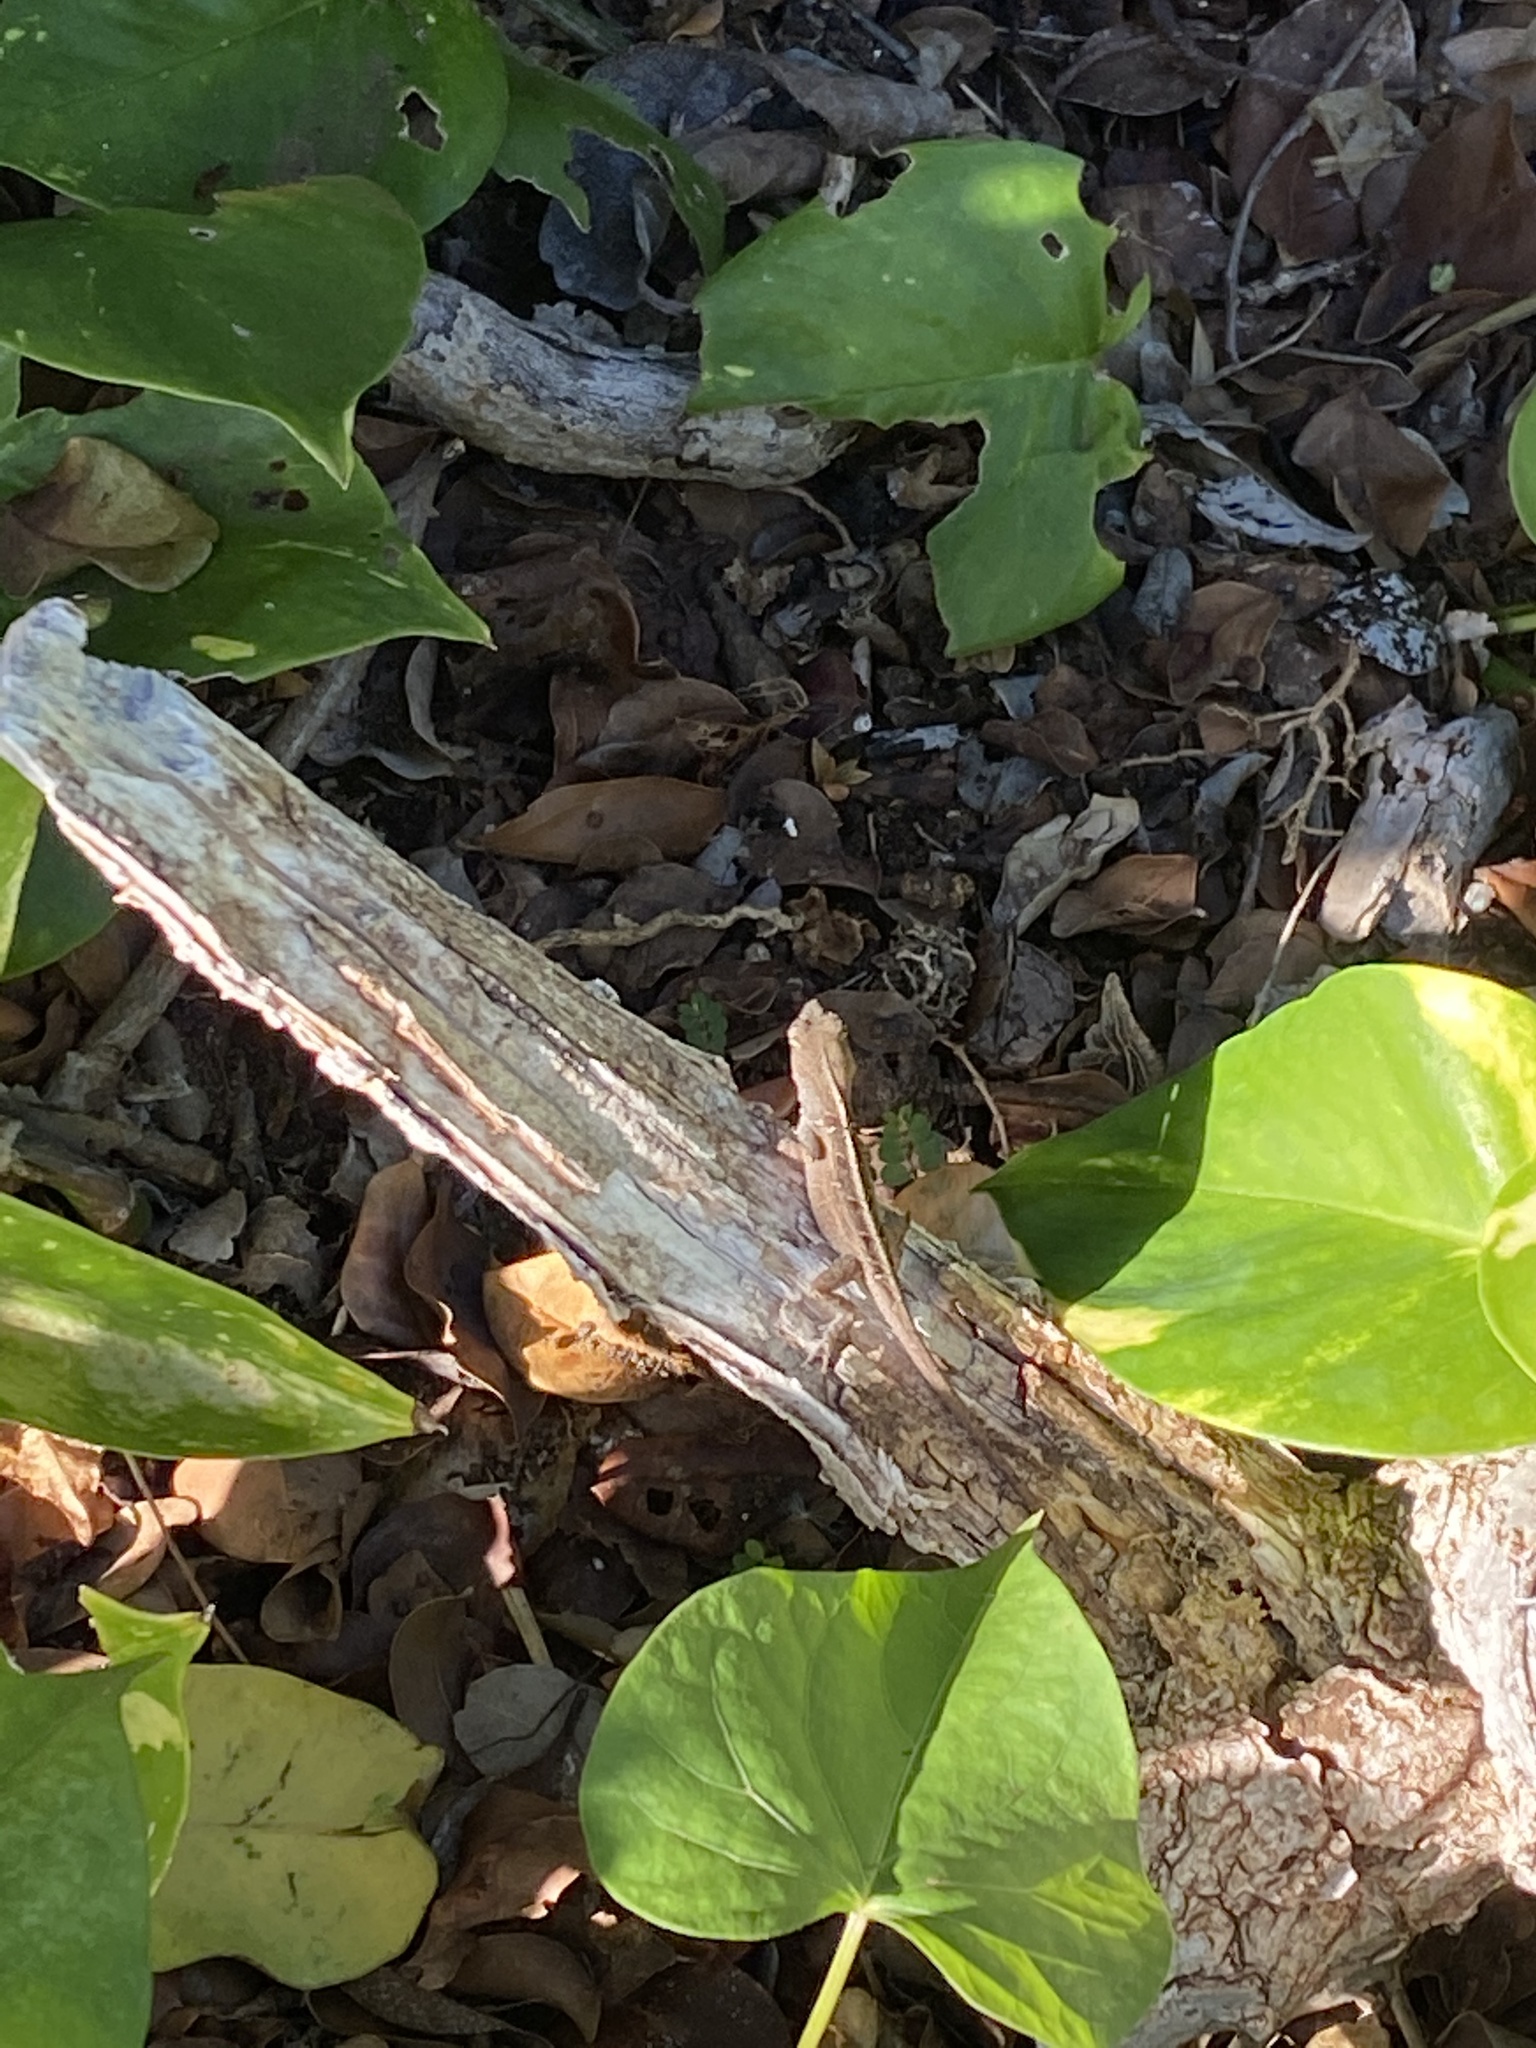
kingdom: Animalia
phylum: Chordata
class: Squamata
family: Dactyloidae
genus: Anolis
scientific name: Anolis sagrei
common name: Brown anole
